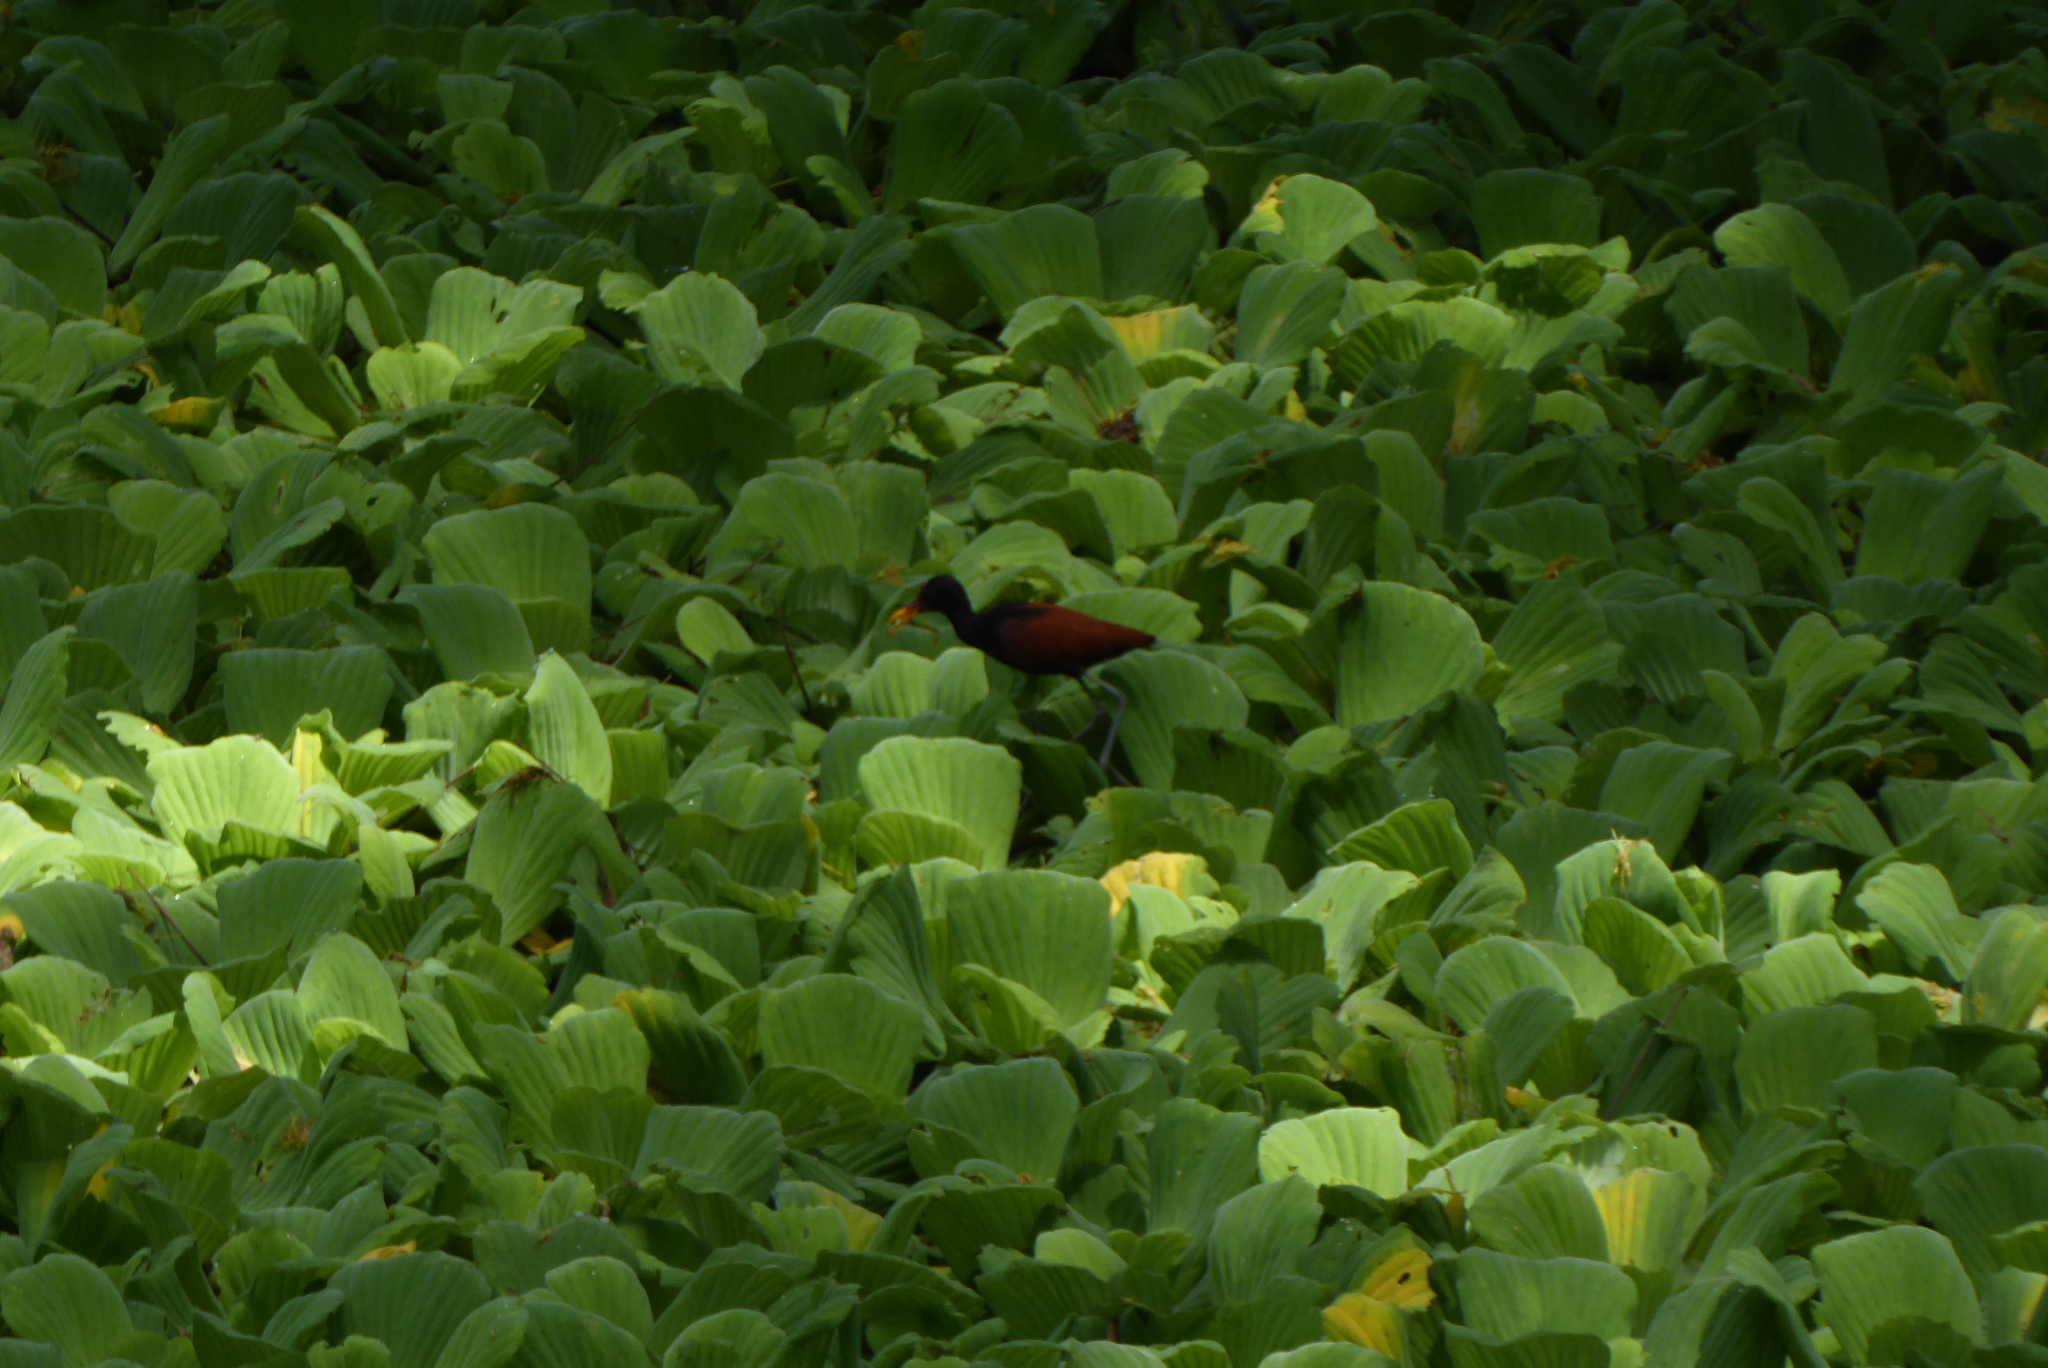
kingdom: Plantae
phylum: Tracheophyta
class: Liliopsida
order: Alismatales
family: Araceae
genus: Pistia
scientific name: Pistia stratiotes
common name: Water lettuce
